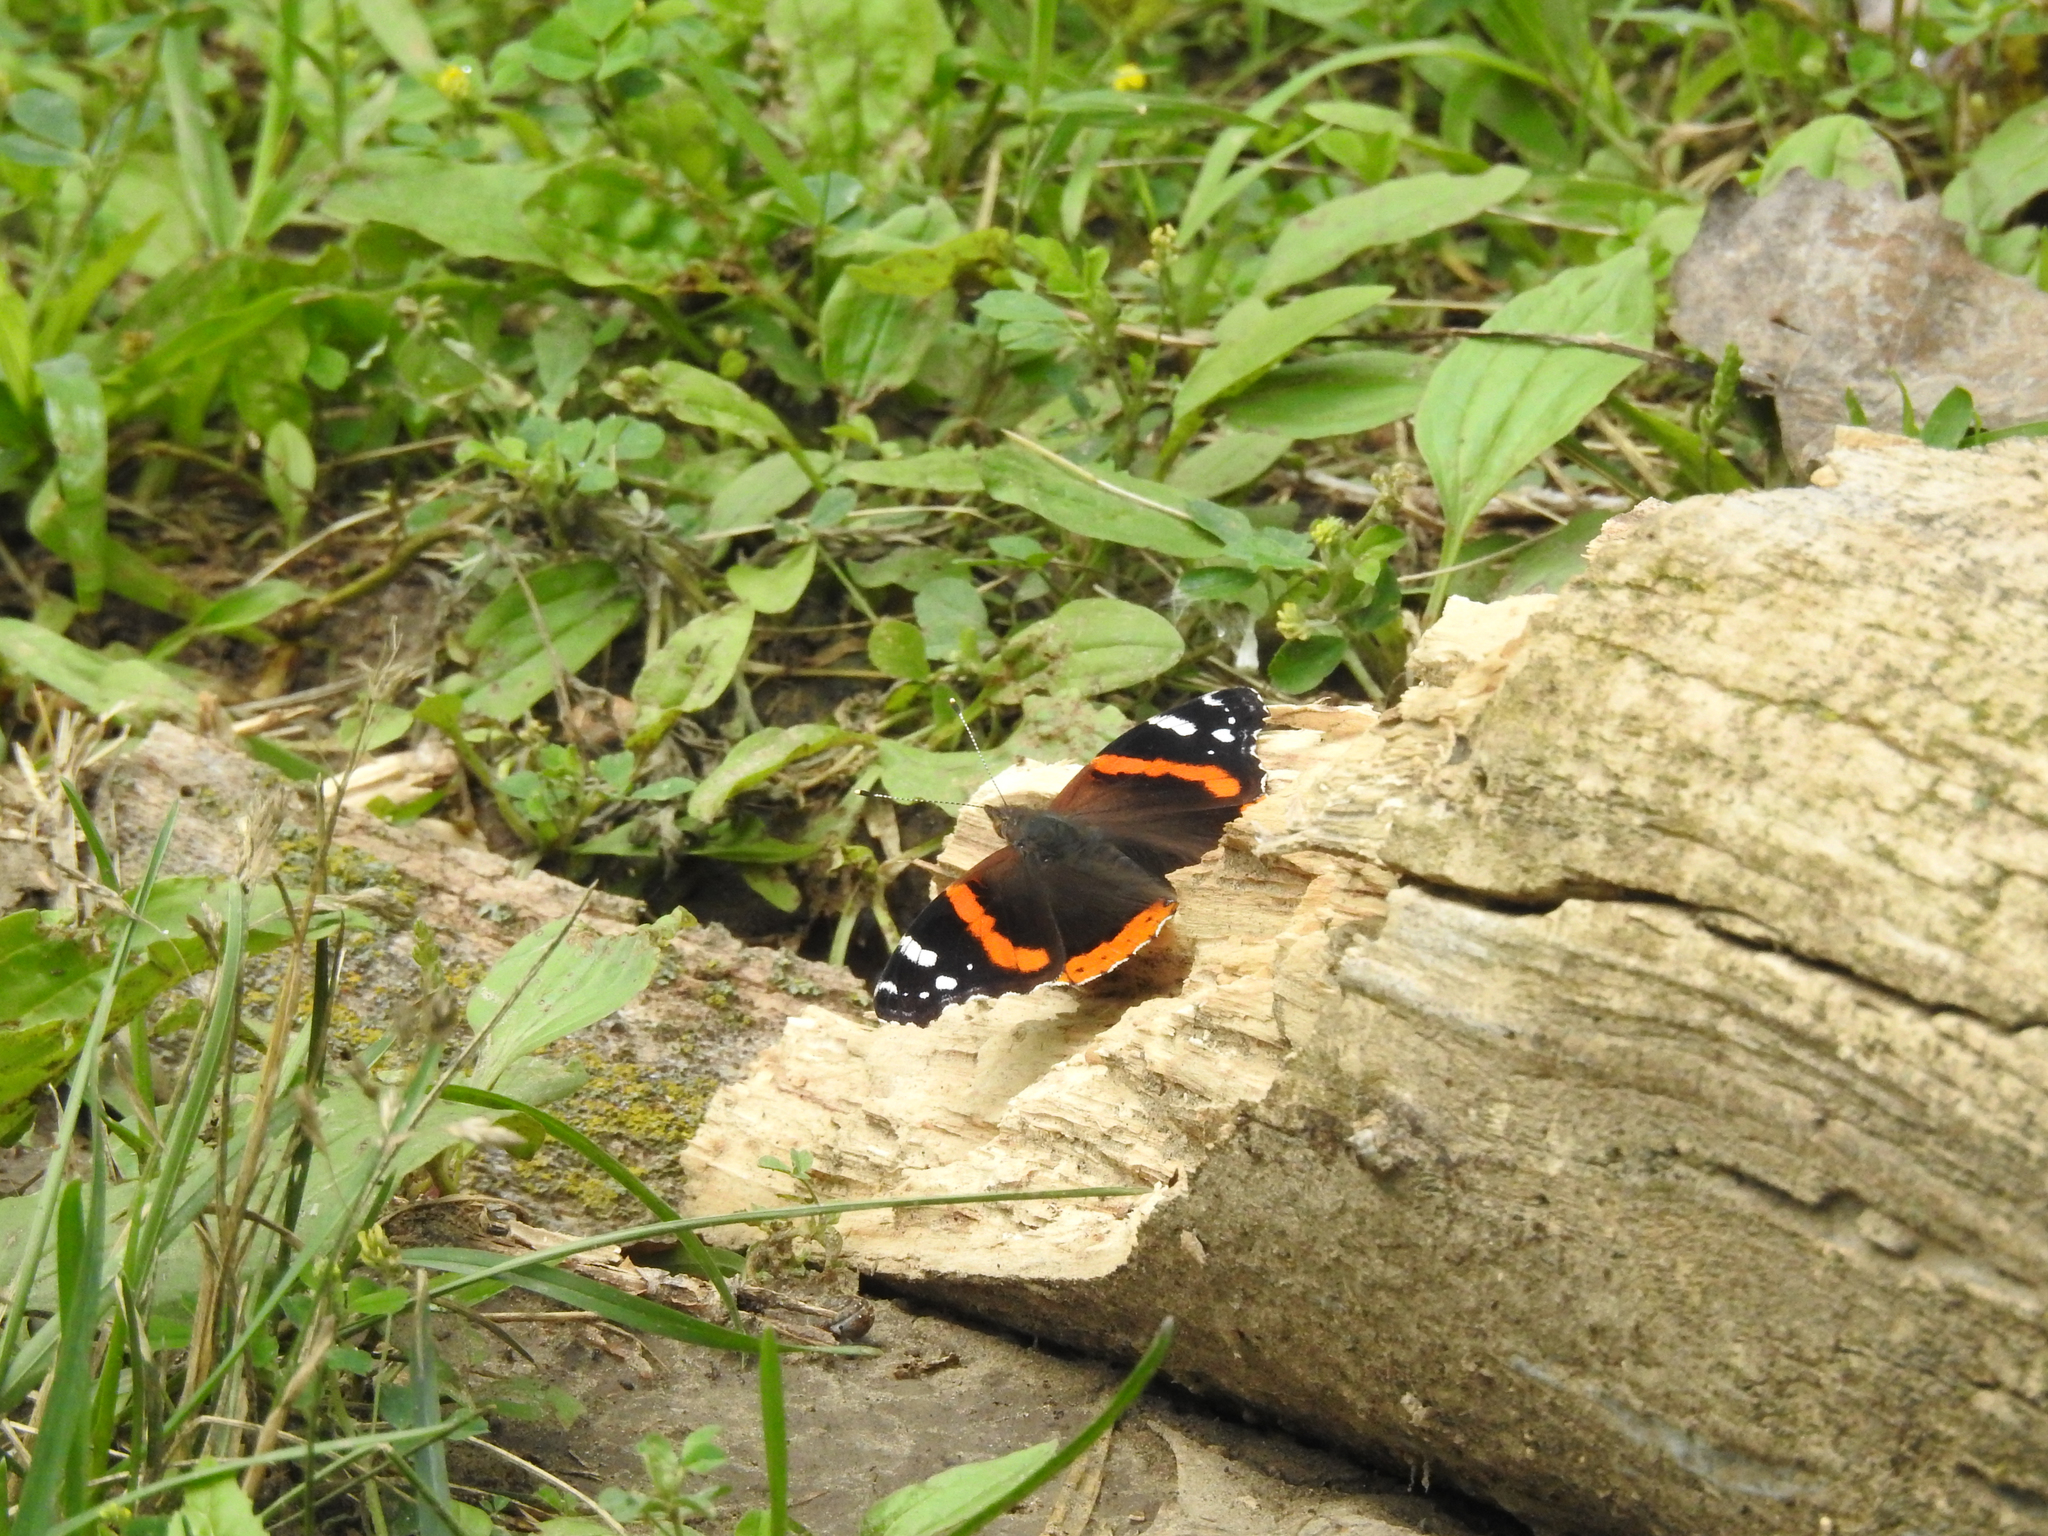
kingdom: Animalia
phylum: Arthropoda
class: Insecta
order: Lepidoptera
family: Nymphalidae
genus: Vanessa
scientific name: Vanessa atalanta
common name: Red admiral
